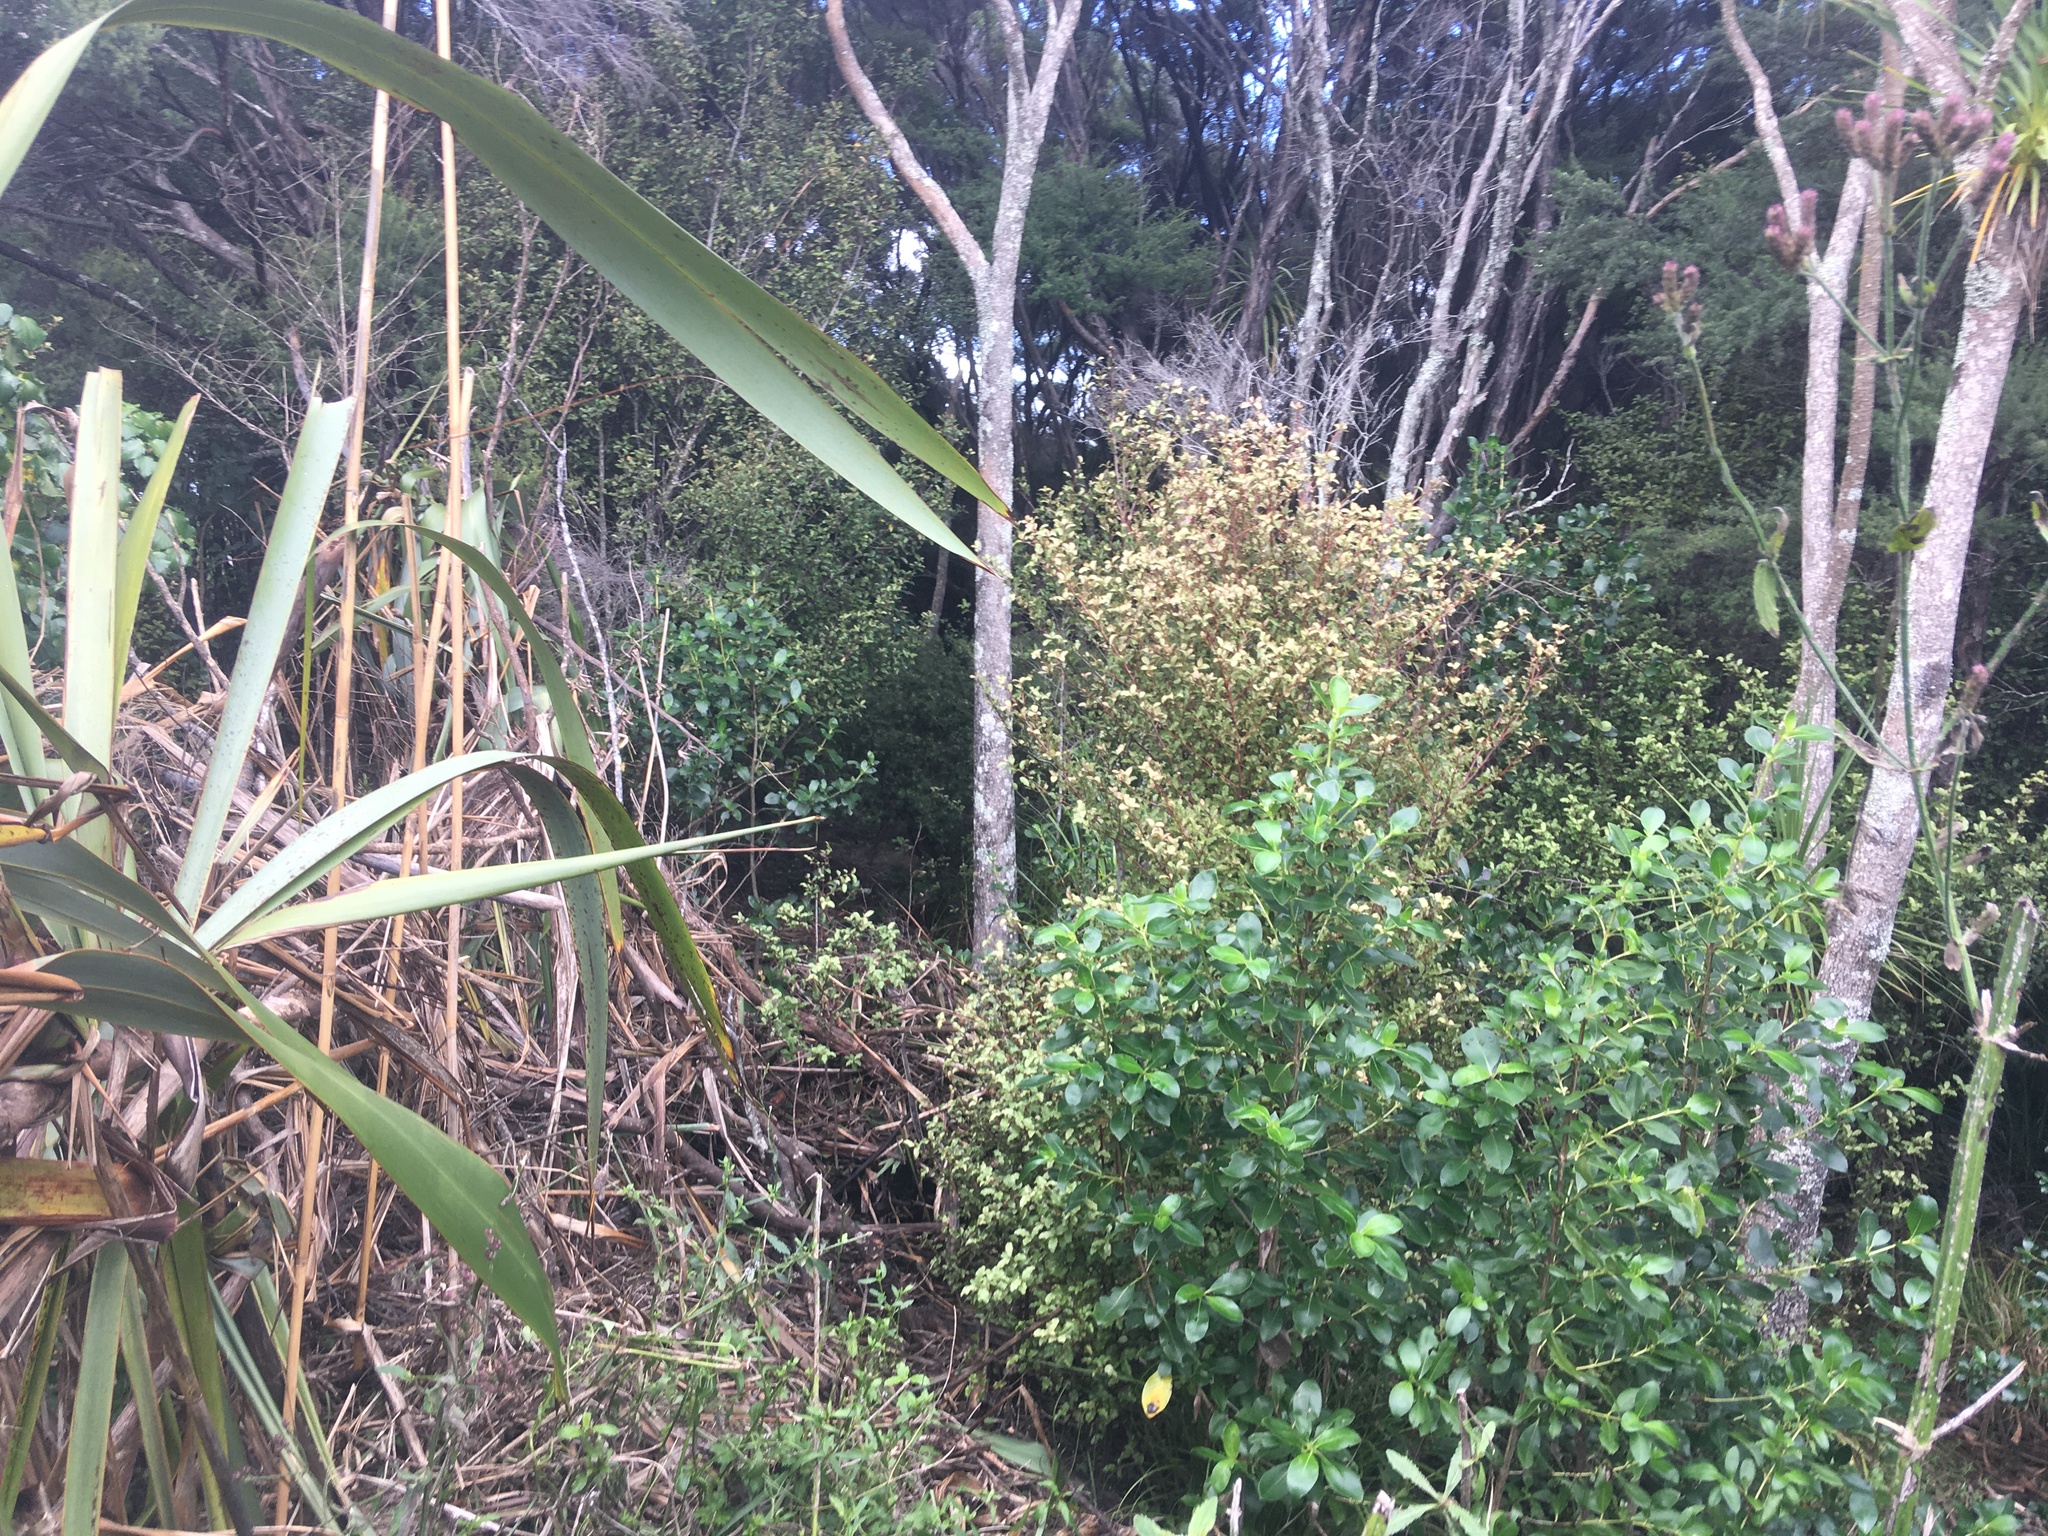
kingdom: Plantae
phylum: Tracheophyta
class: Magnoliopsida
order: Gentianales
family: Rubiaceae
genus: Coprosma
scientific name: Coprosma robusta
